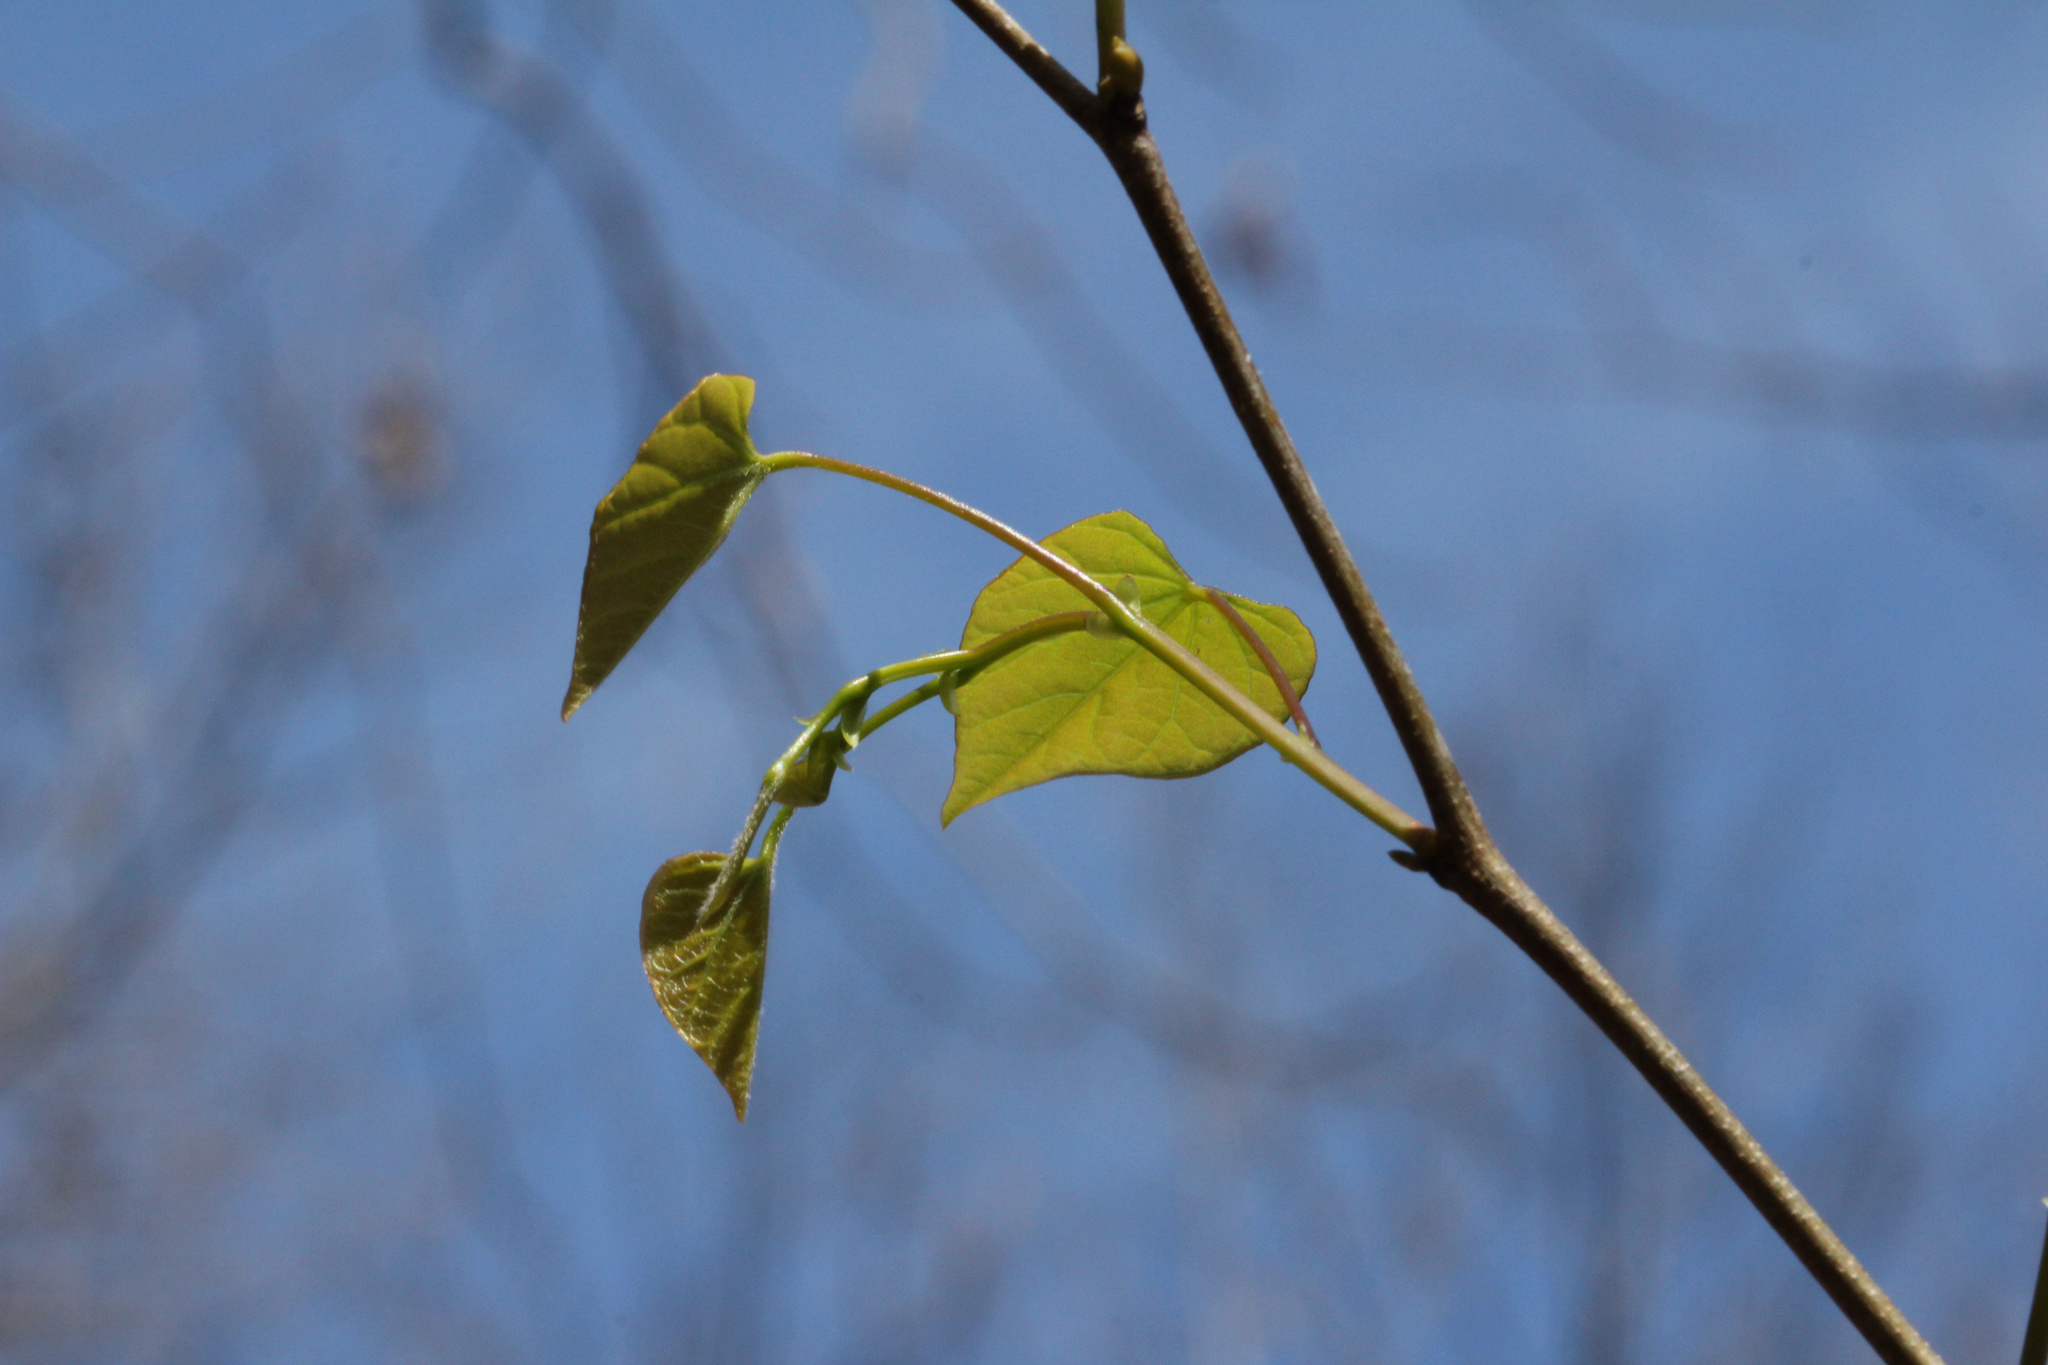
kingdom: Plantae
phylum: Tracheophyta
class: Magnoliopsida
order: Fabales
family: Fabaceae
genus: Cercis
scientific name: Cercis canadensis
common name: Eastern redbud
